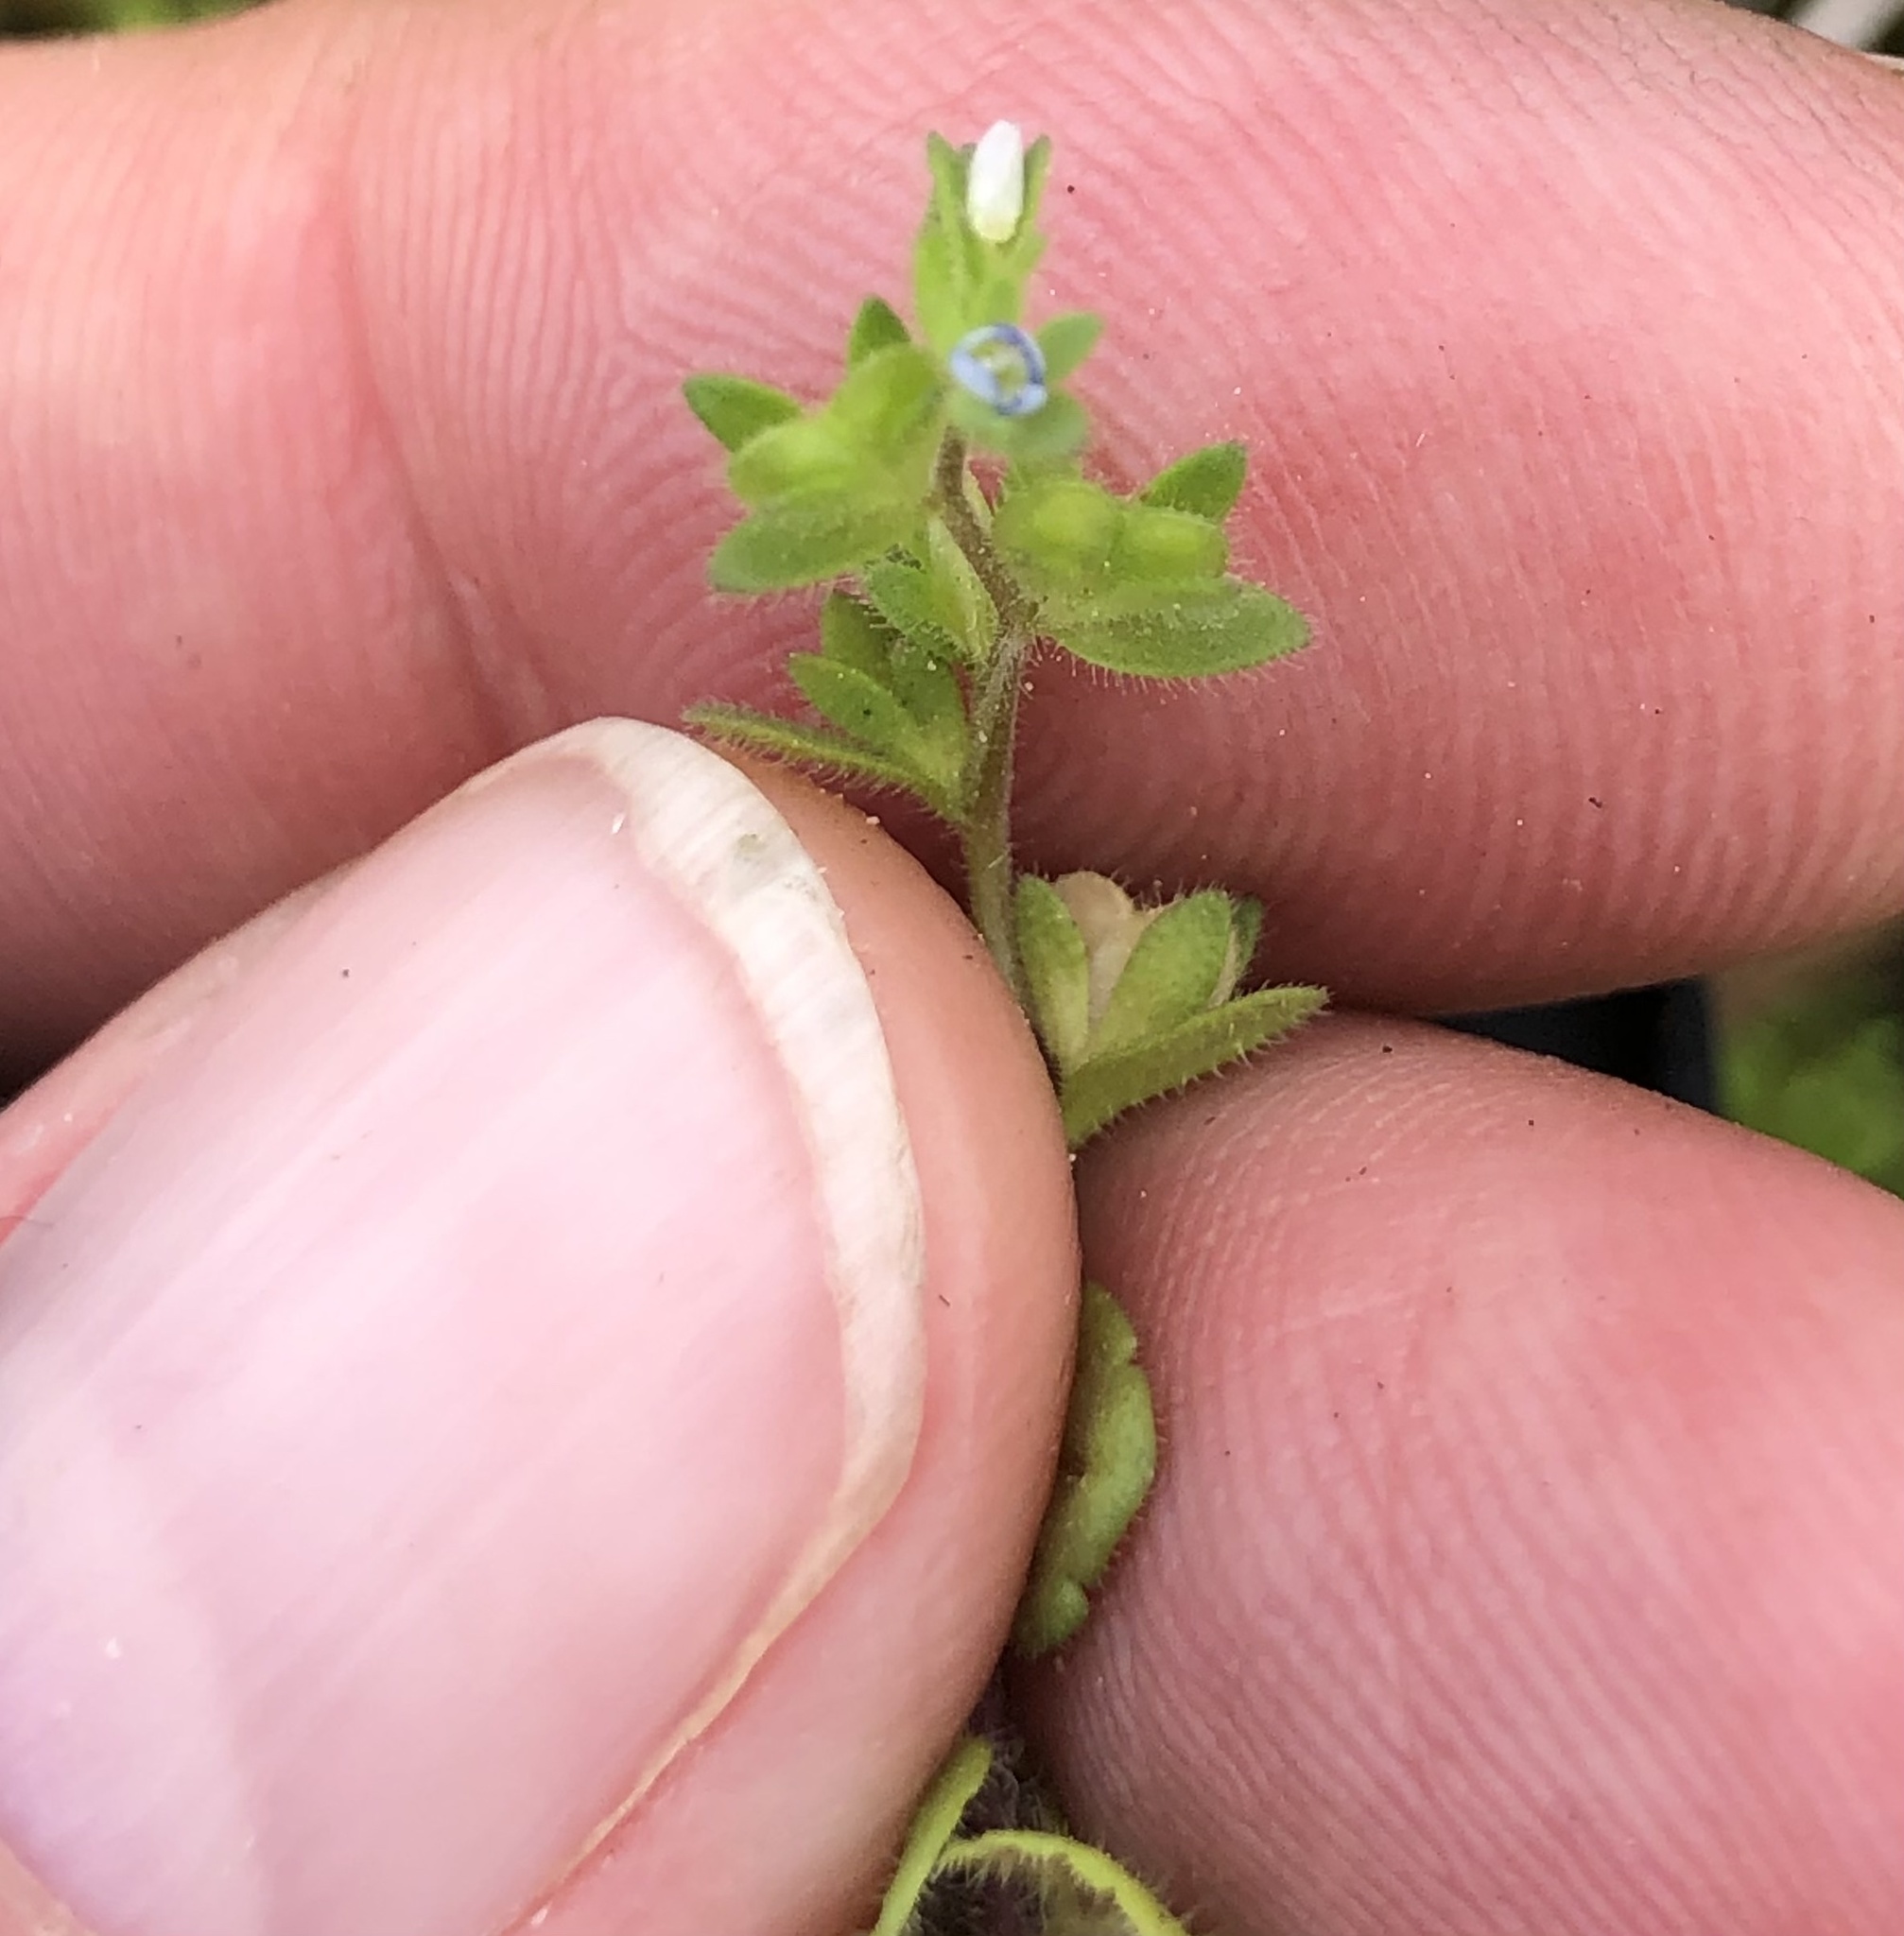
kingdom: Plantae
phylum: Tracheophyta
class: Magnoliopsida
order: Lamiales
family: Plantaginaceae
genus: Veronica
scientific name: Veronica arvensis
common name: Corn speedwell
